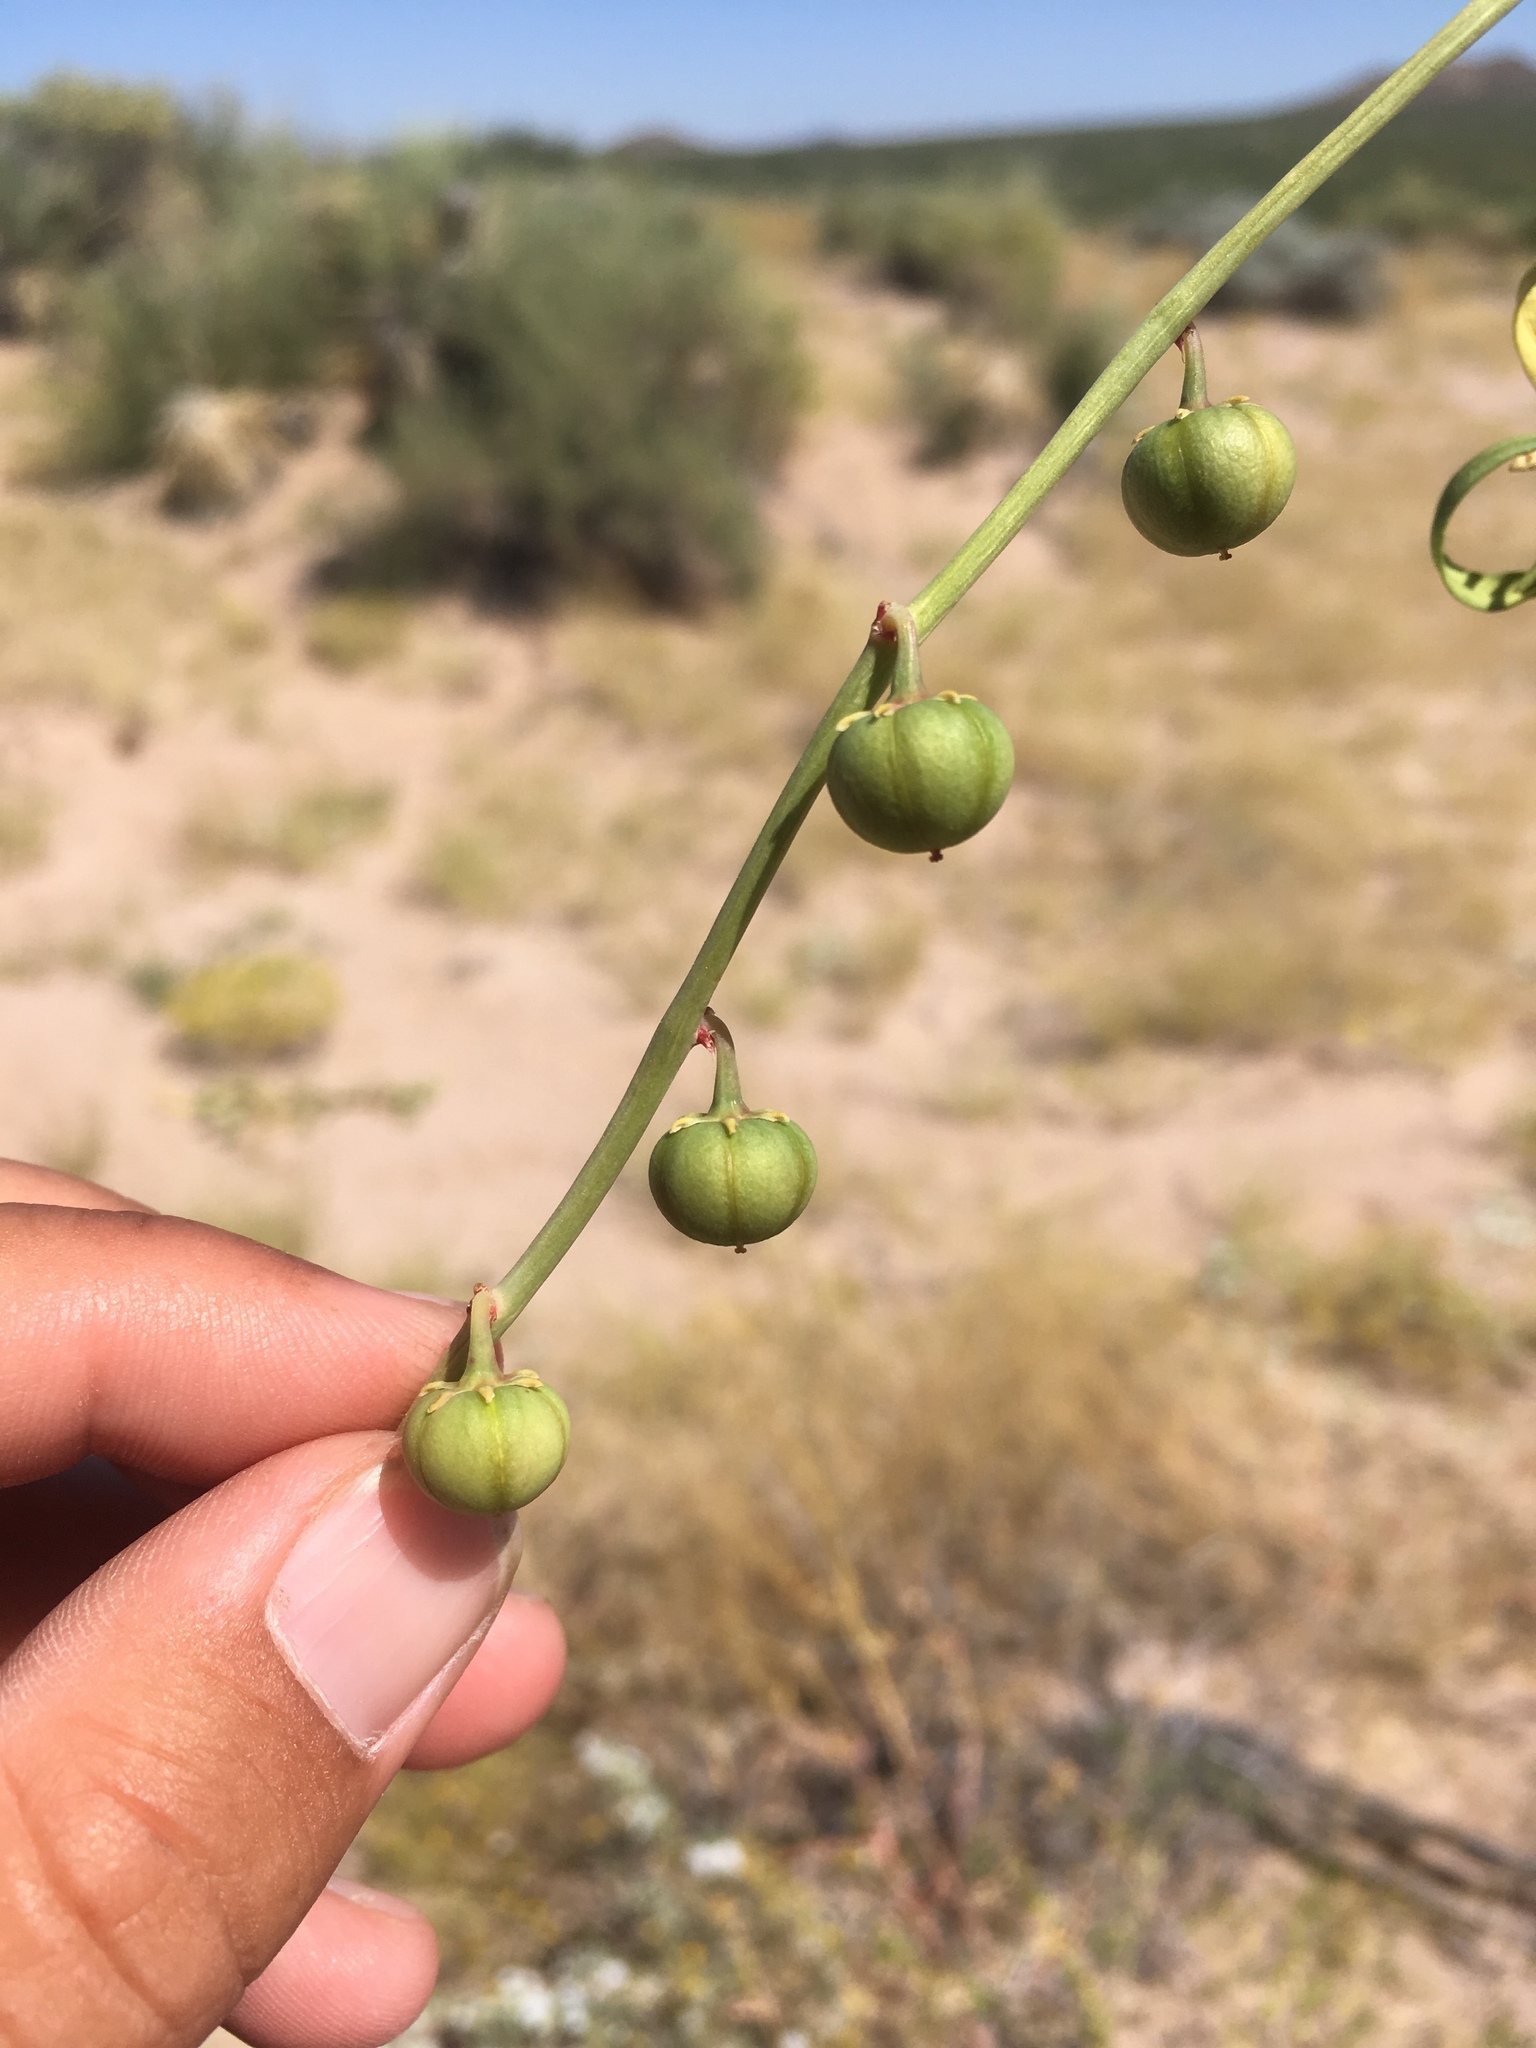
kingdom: Plantae
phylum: Tracheophyta
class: Magnoliopsida
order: Malpighiales
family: Phyllanthaceae
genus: Phyllanthus
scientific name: Phyllanthus warnockii
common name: Sand reverchonia
